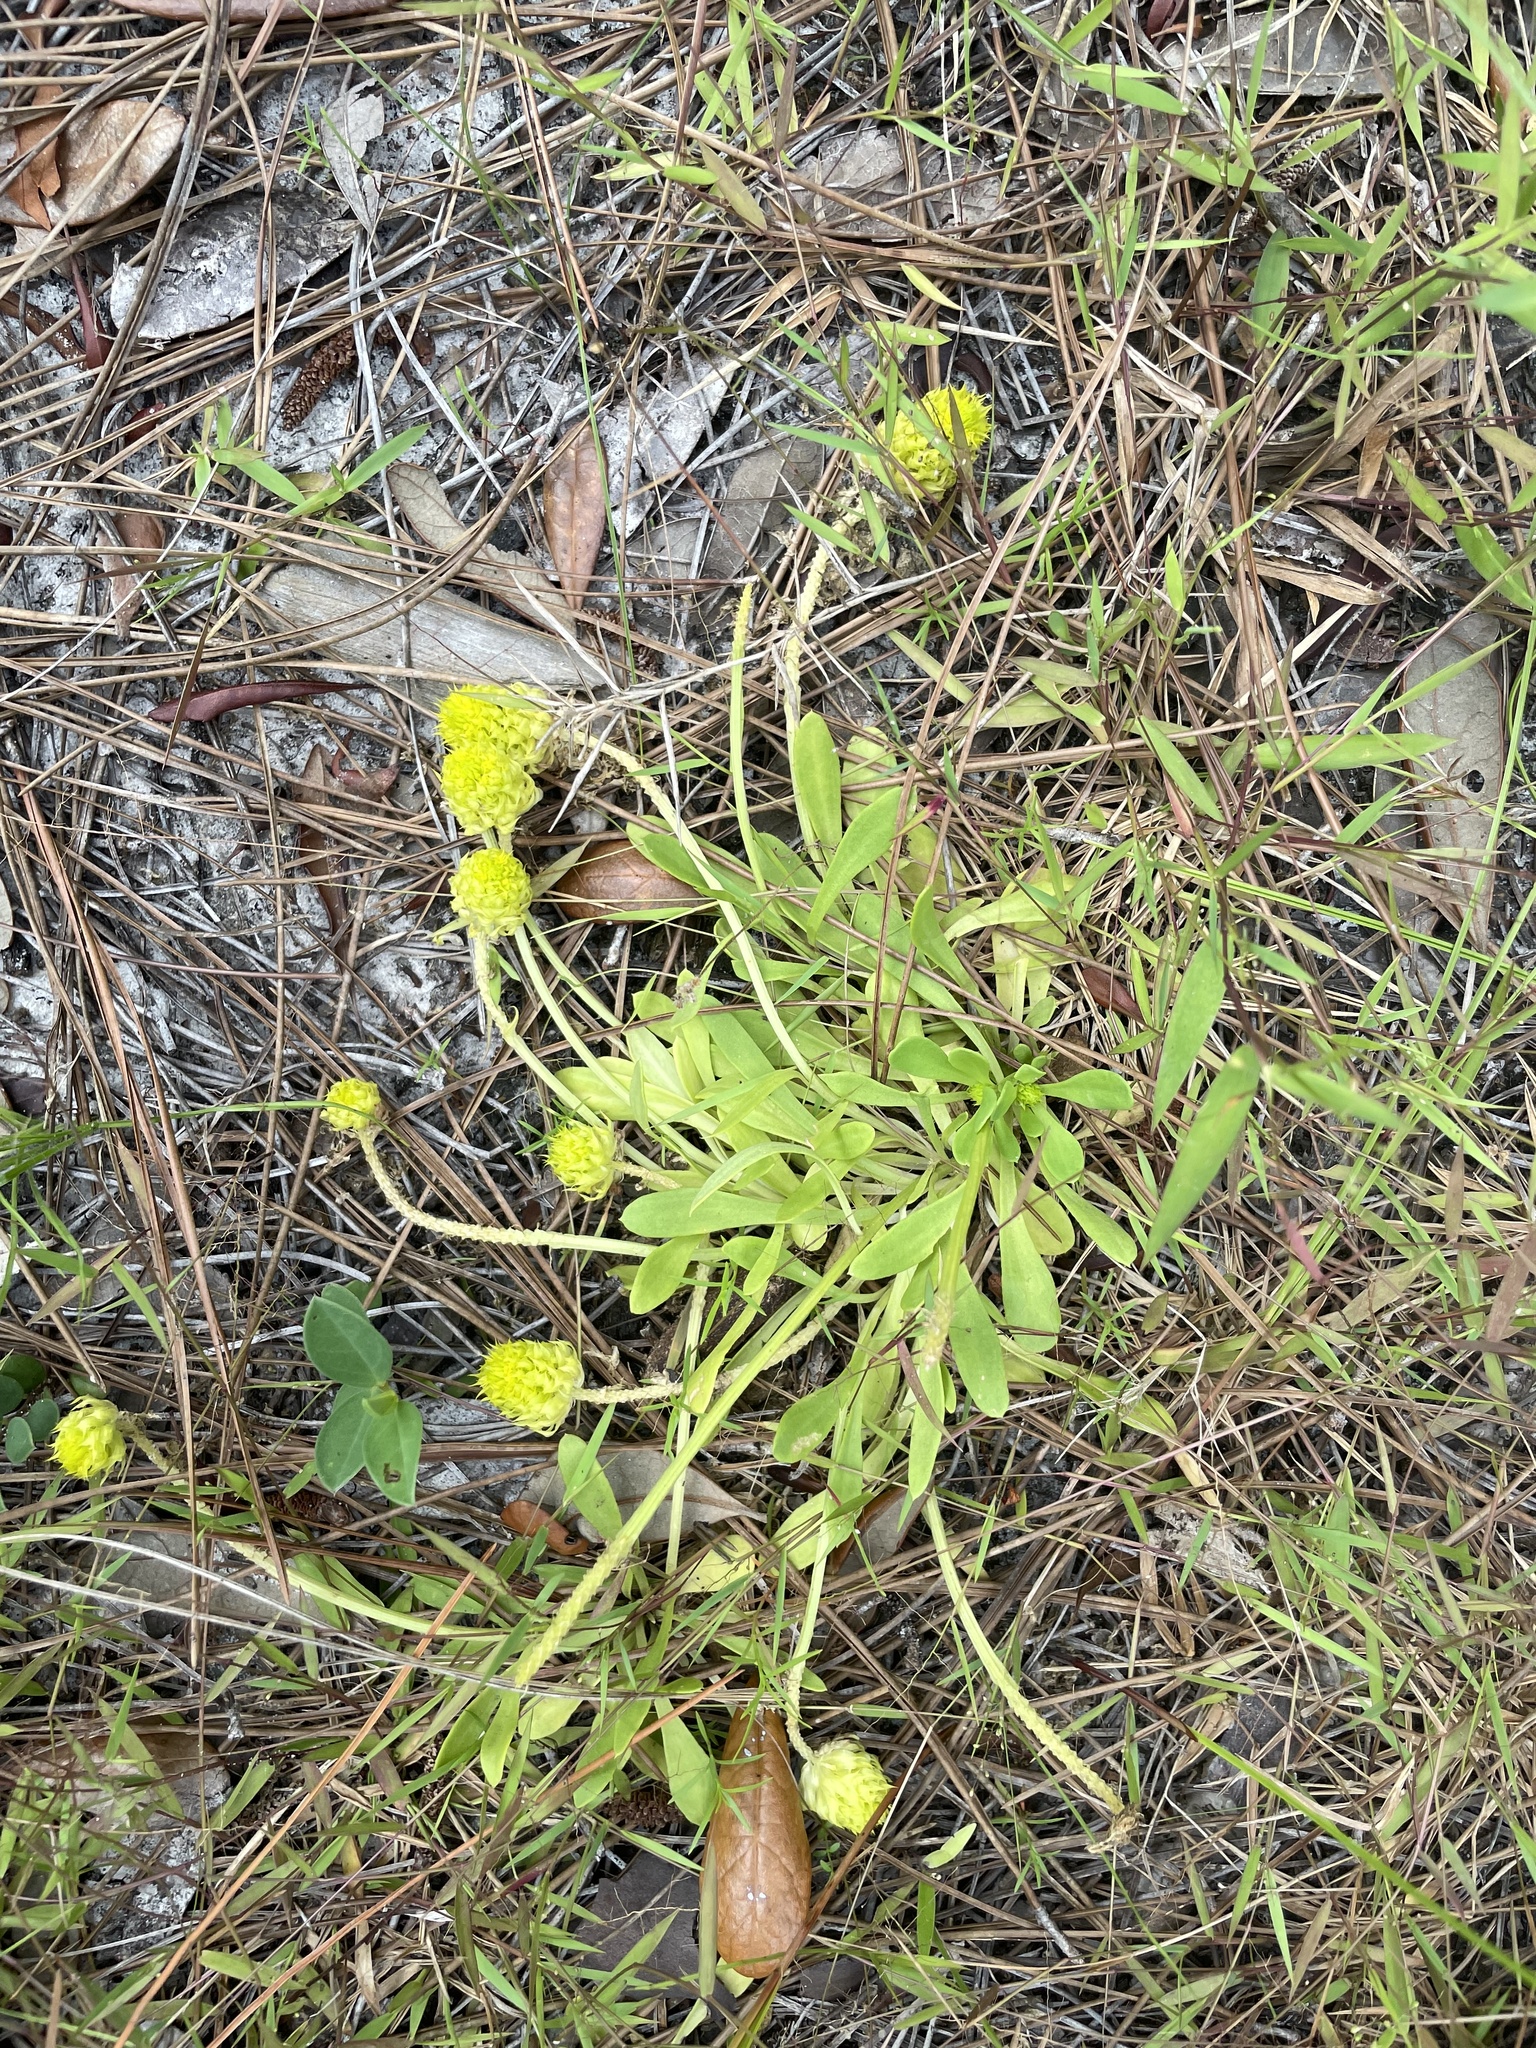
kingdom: Plantae
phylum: Tracheophyta
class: Magnoliopsida
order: Fabales
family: Polygalaceae
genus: Polygala
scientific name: Polygala nana
